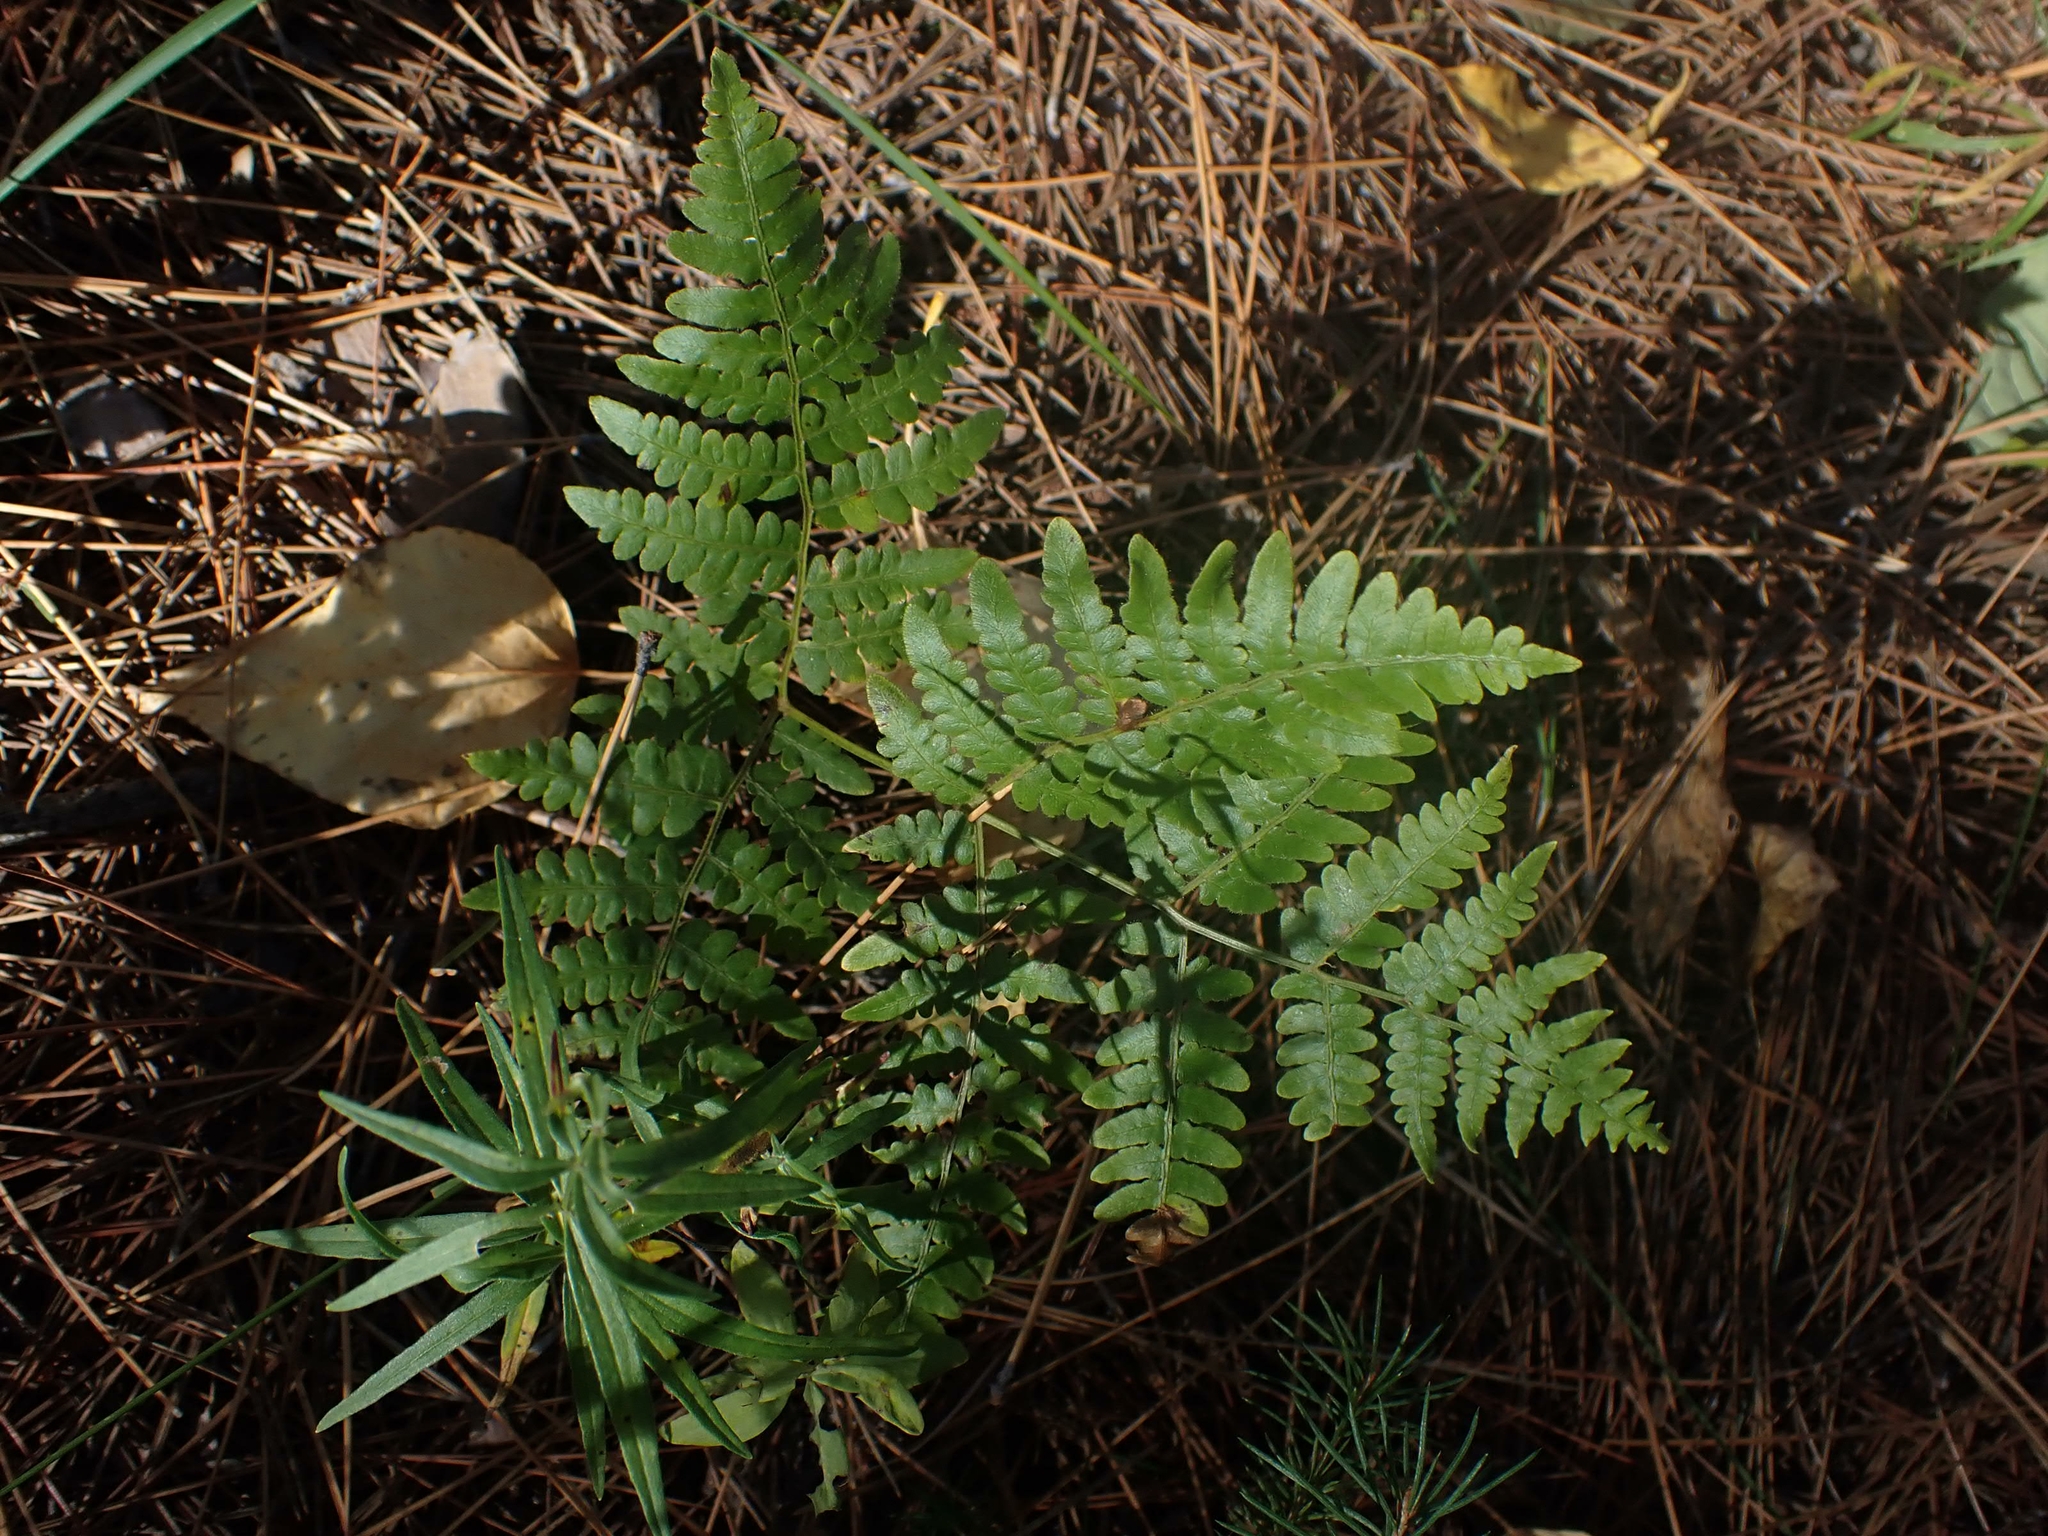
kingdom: Plantae
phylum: Tracheophyta
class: Polypodiopsida
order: Polypodiales
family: Dennstaedtiaceae
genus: Pteridium
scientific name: Pteridium aquilinum
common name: Bracken
